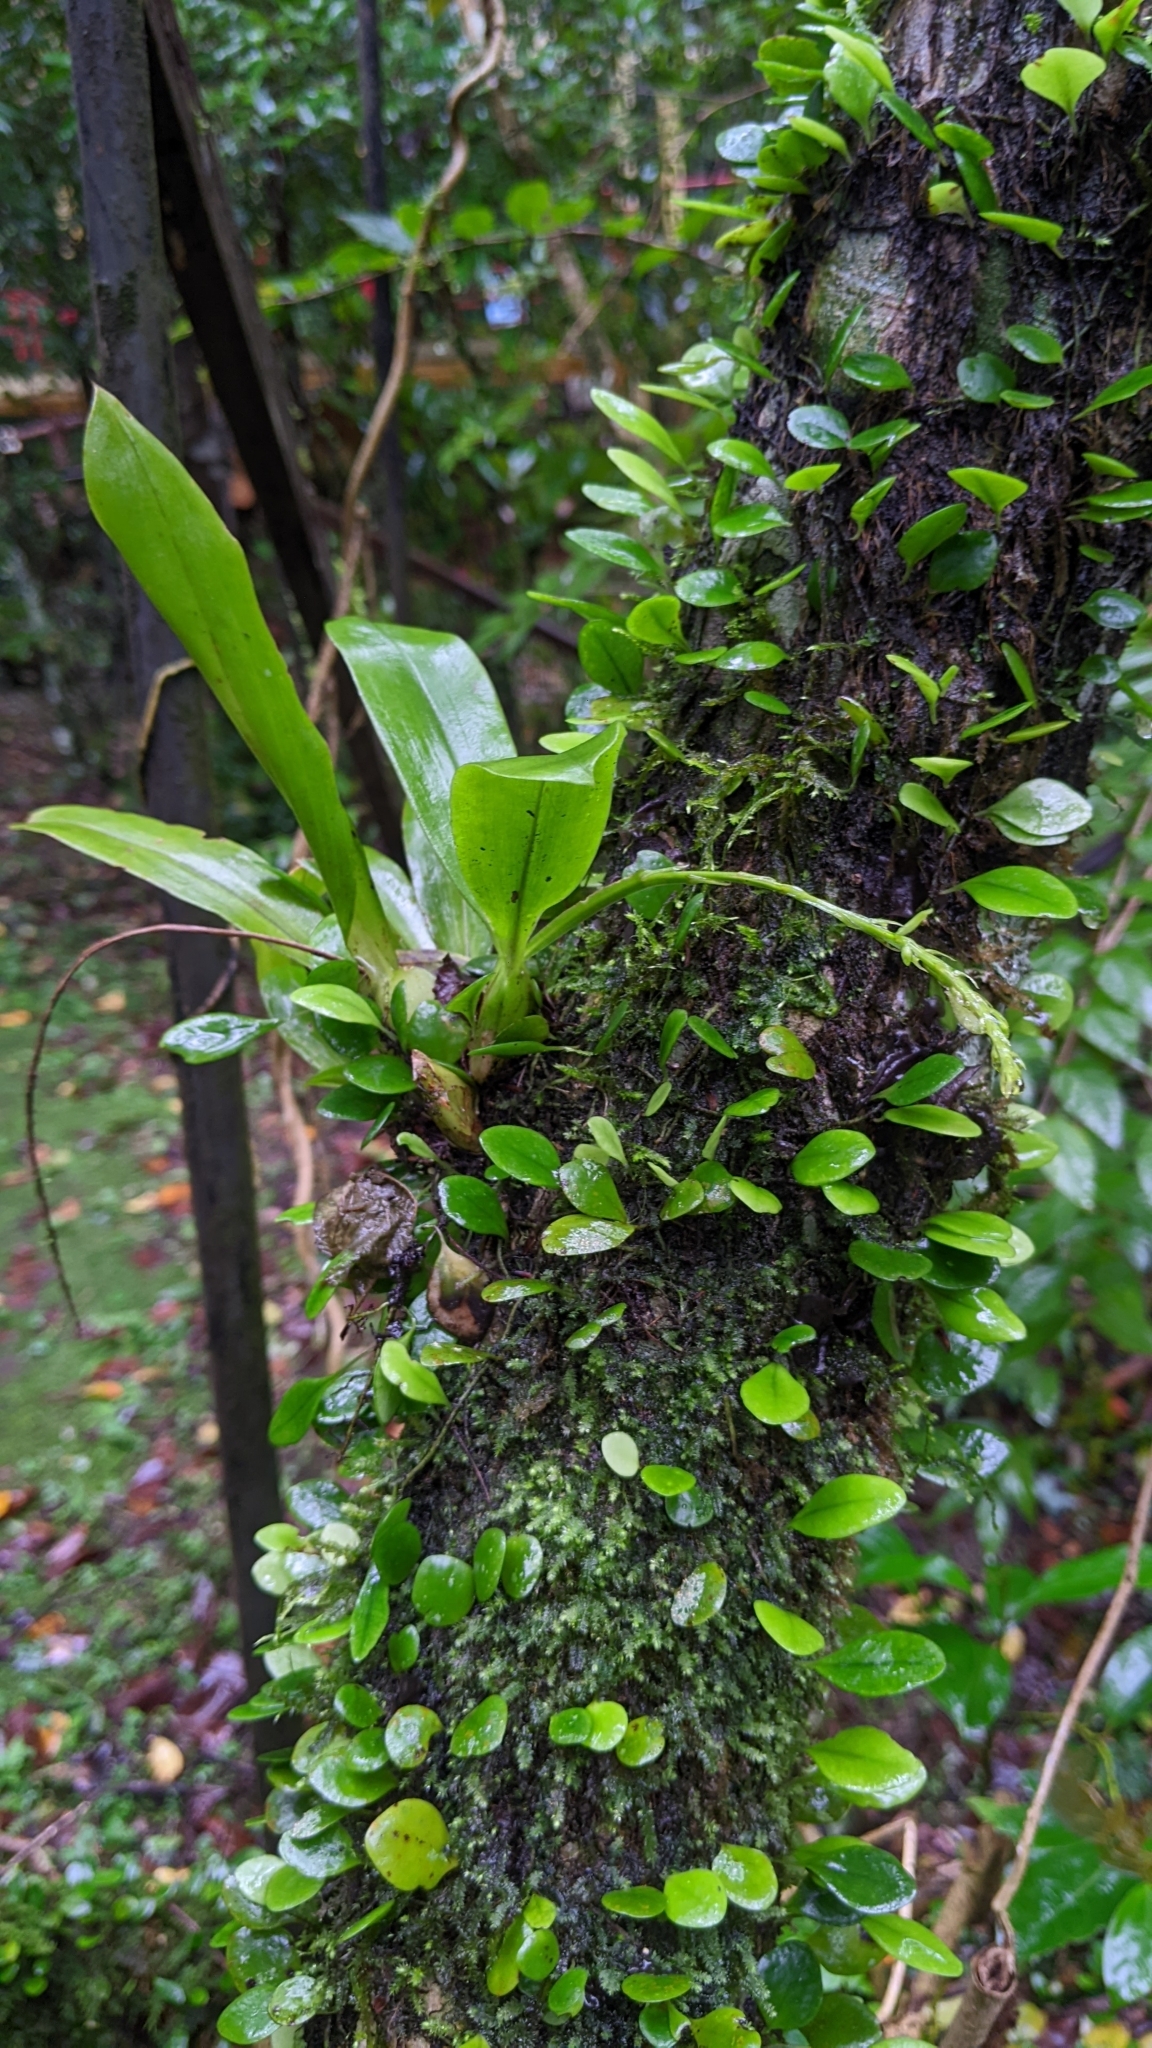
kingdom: Plantae
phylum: Tracheophyta
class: Liliopsida
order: Asparagales
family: Orchidaceae
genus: Liparis
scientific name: Liparis elliptica
